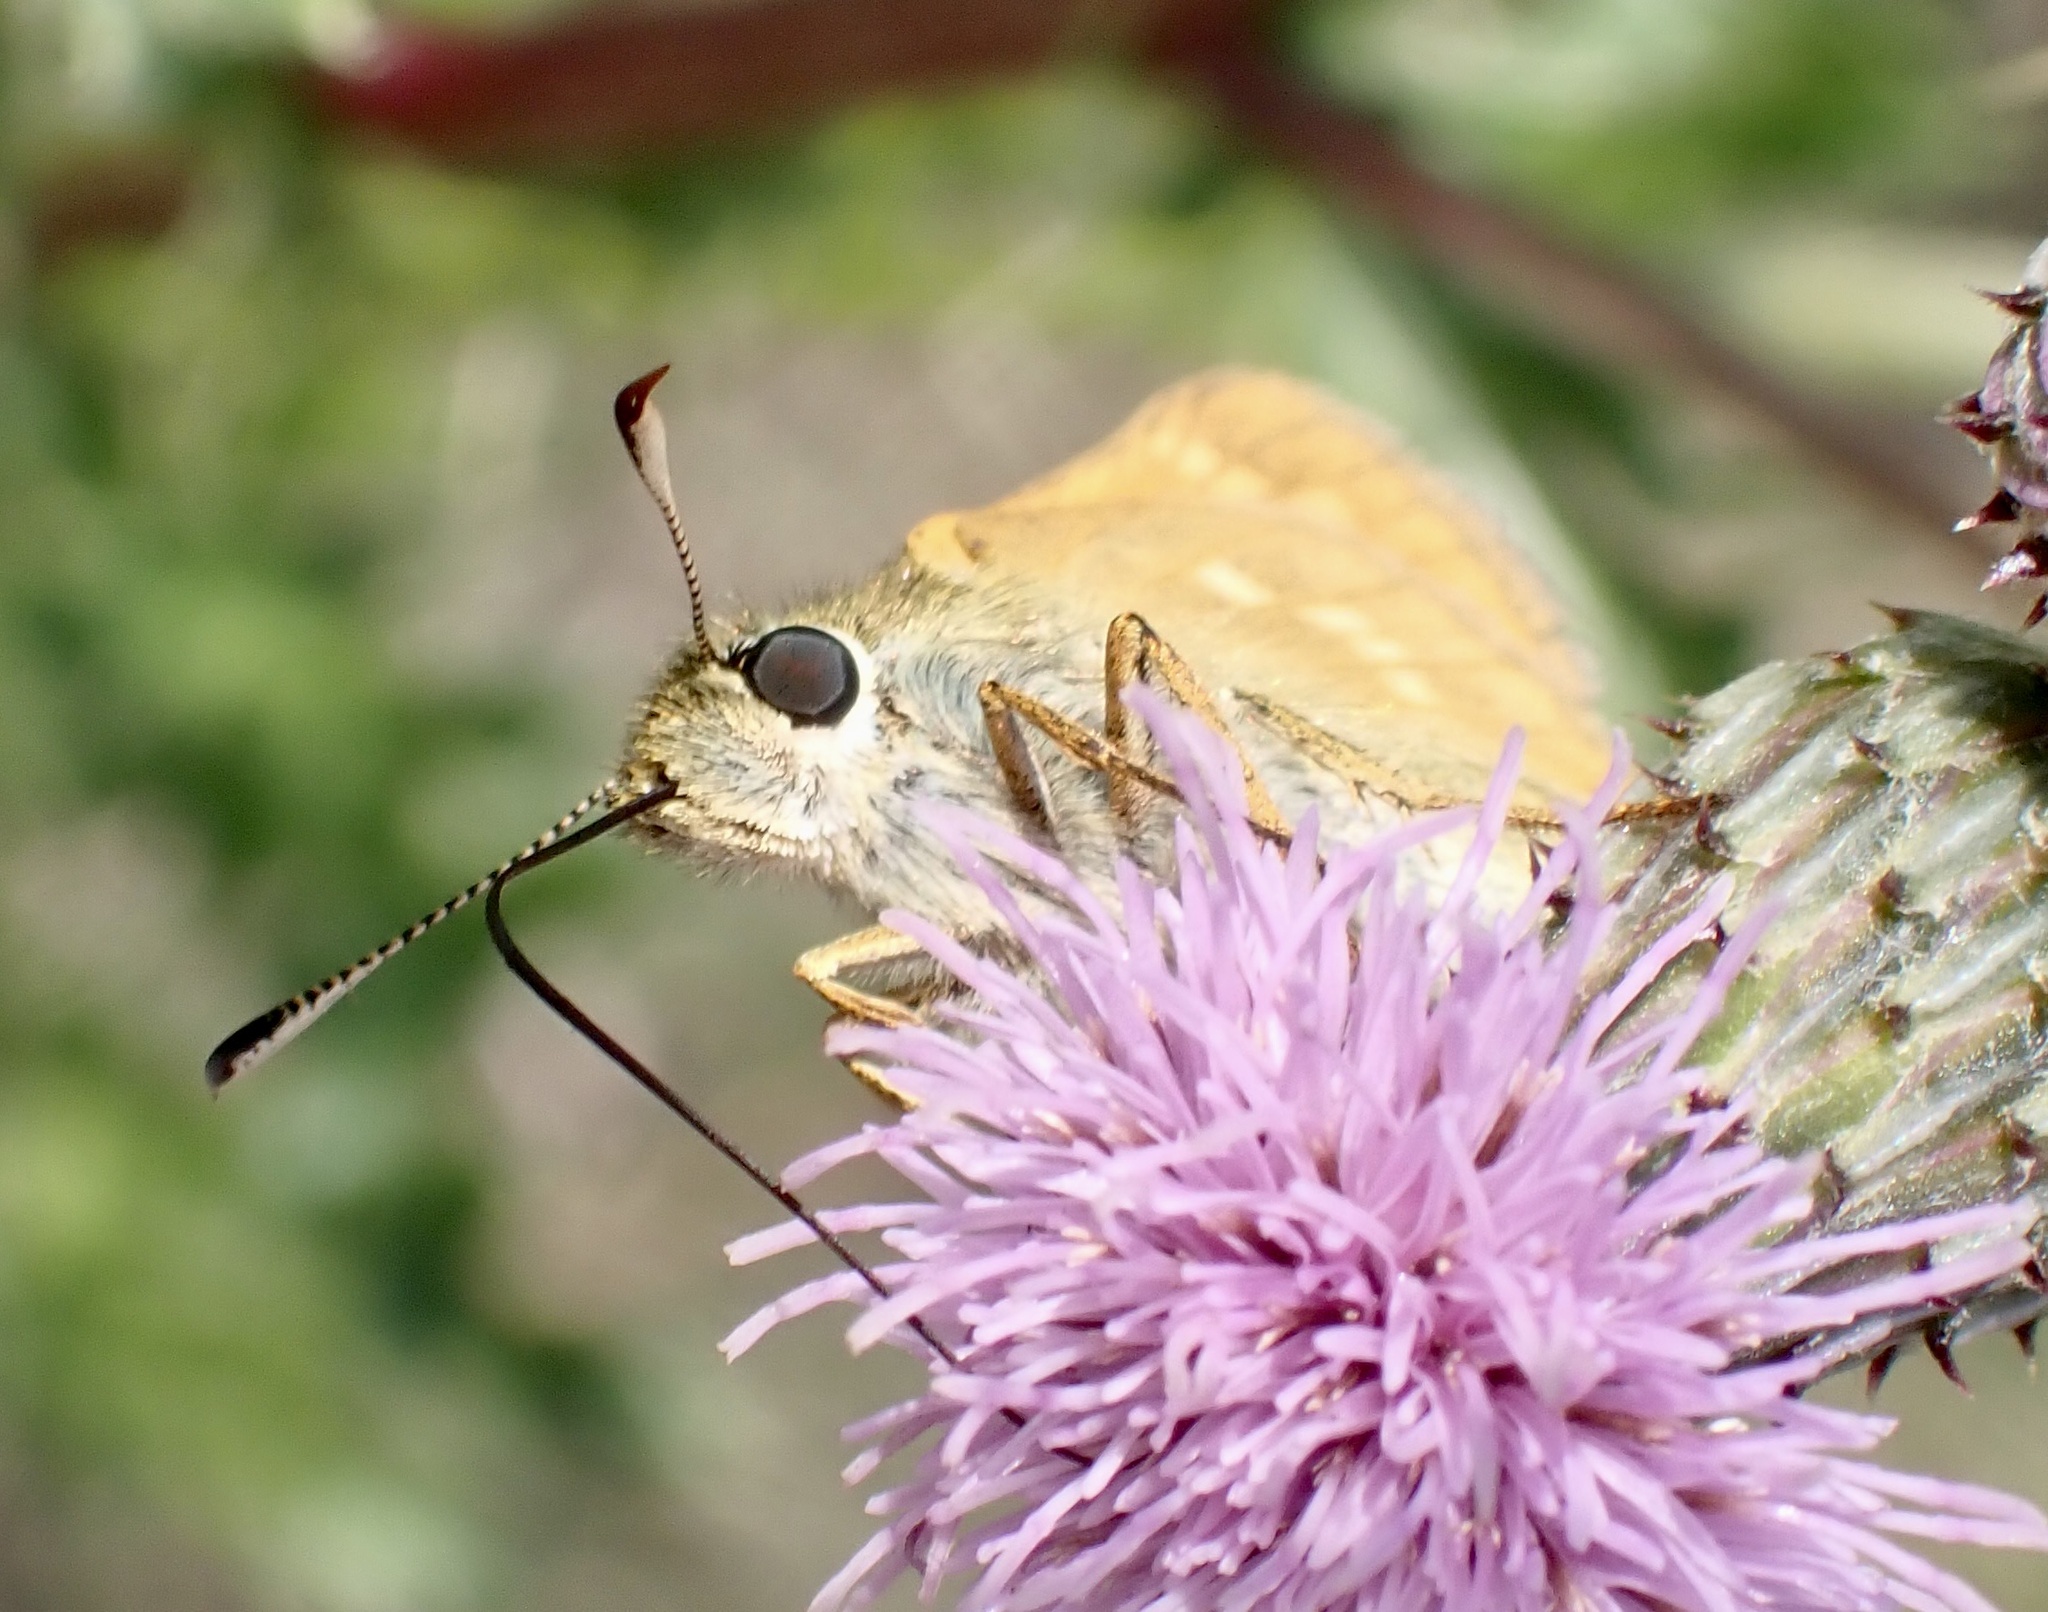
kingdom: Animalia
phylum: Arthropoda
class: Insecta
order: Lepidoptera
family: Hesperiidae
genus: Ochlodes
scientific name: Ochlodes venata
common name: Large skipper
